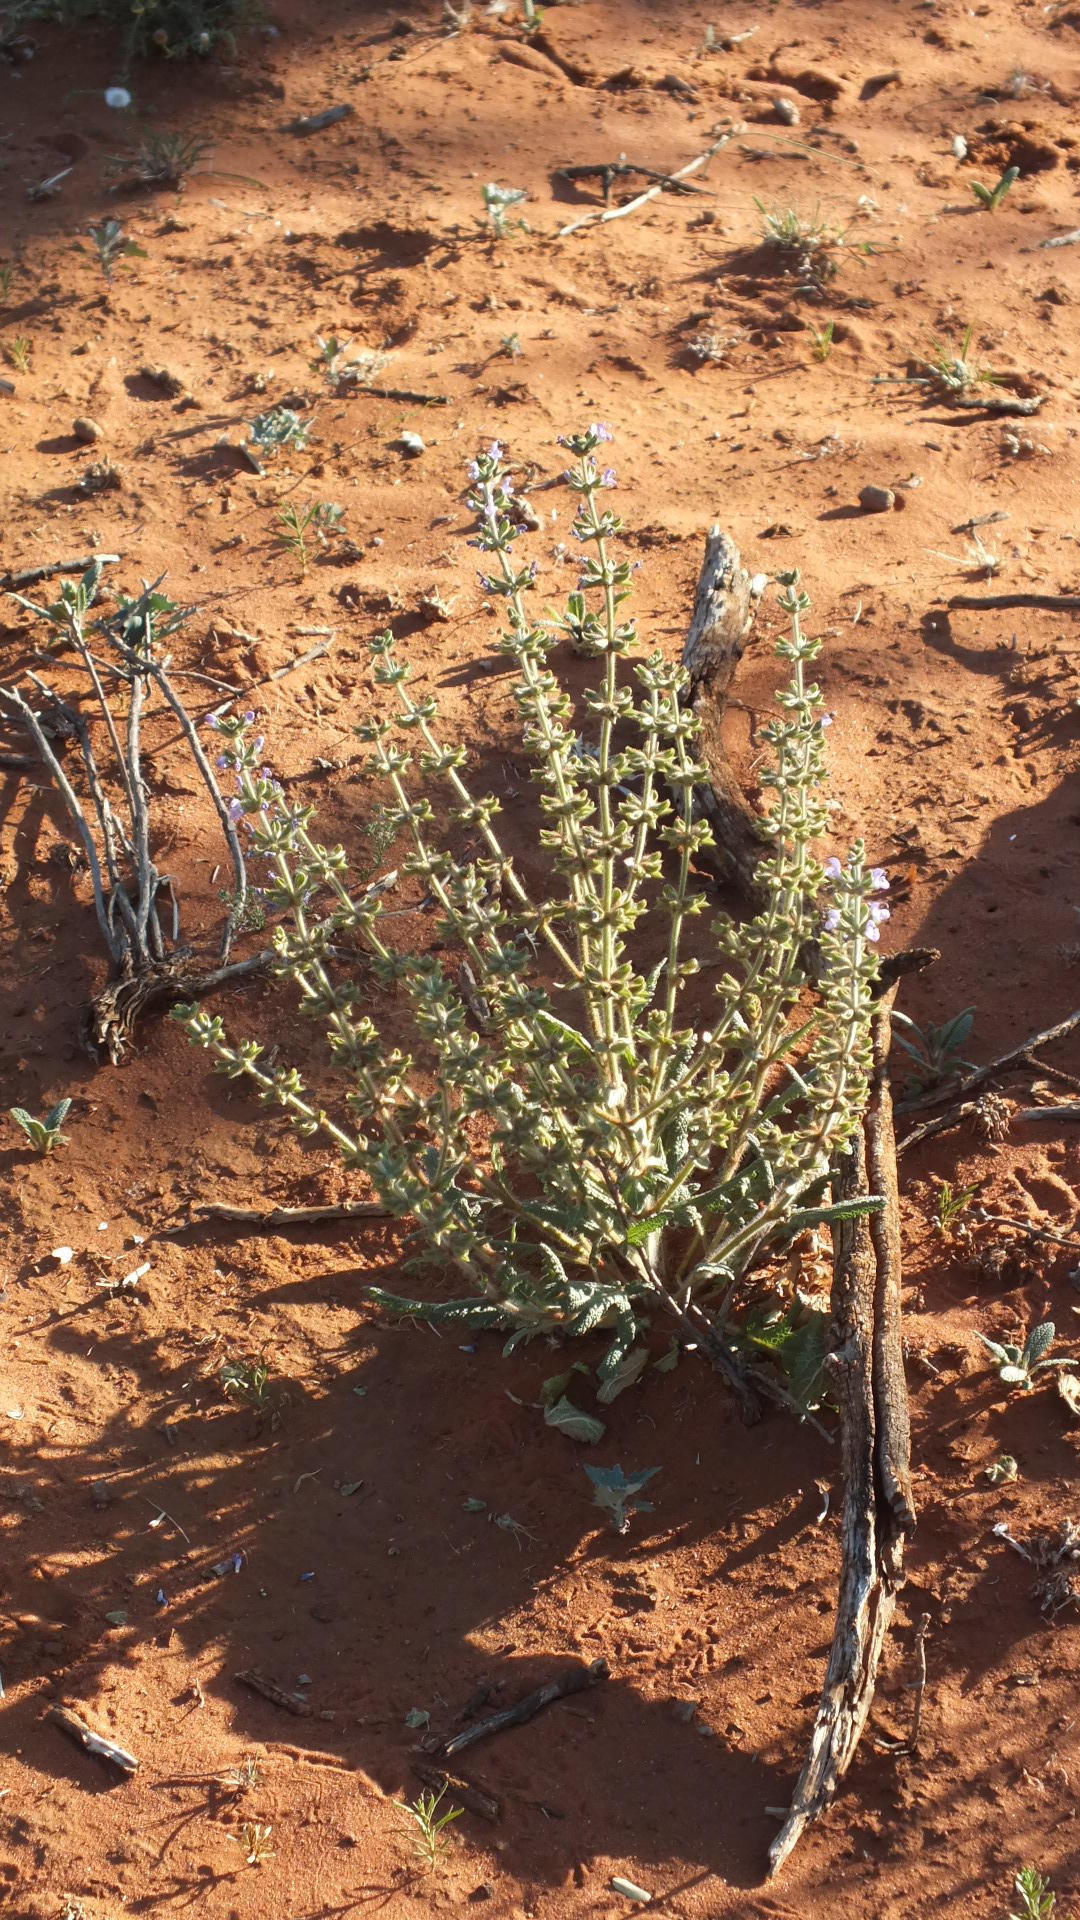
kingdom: Plantae
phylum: Tracheophyta
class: Magnoliopsida
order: Lamiales
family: Lamiaceae
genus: Salvia
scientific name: Salvia verbenaca
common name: Wild clary
